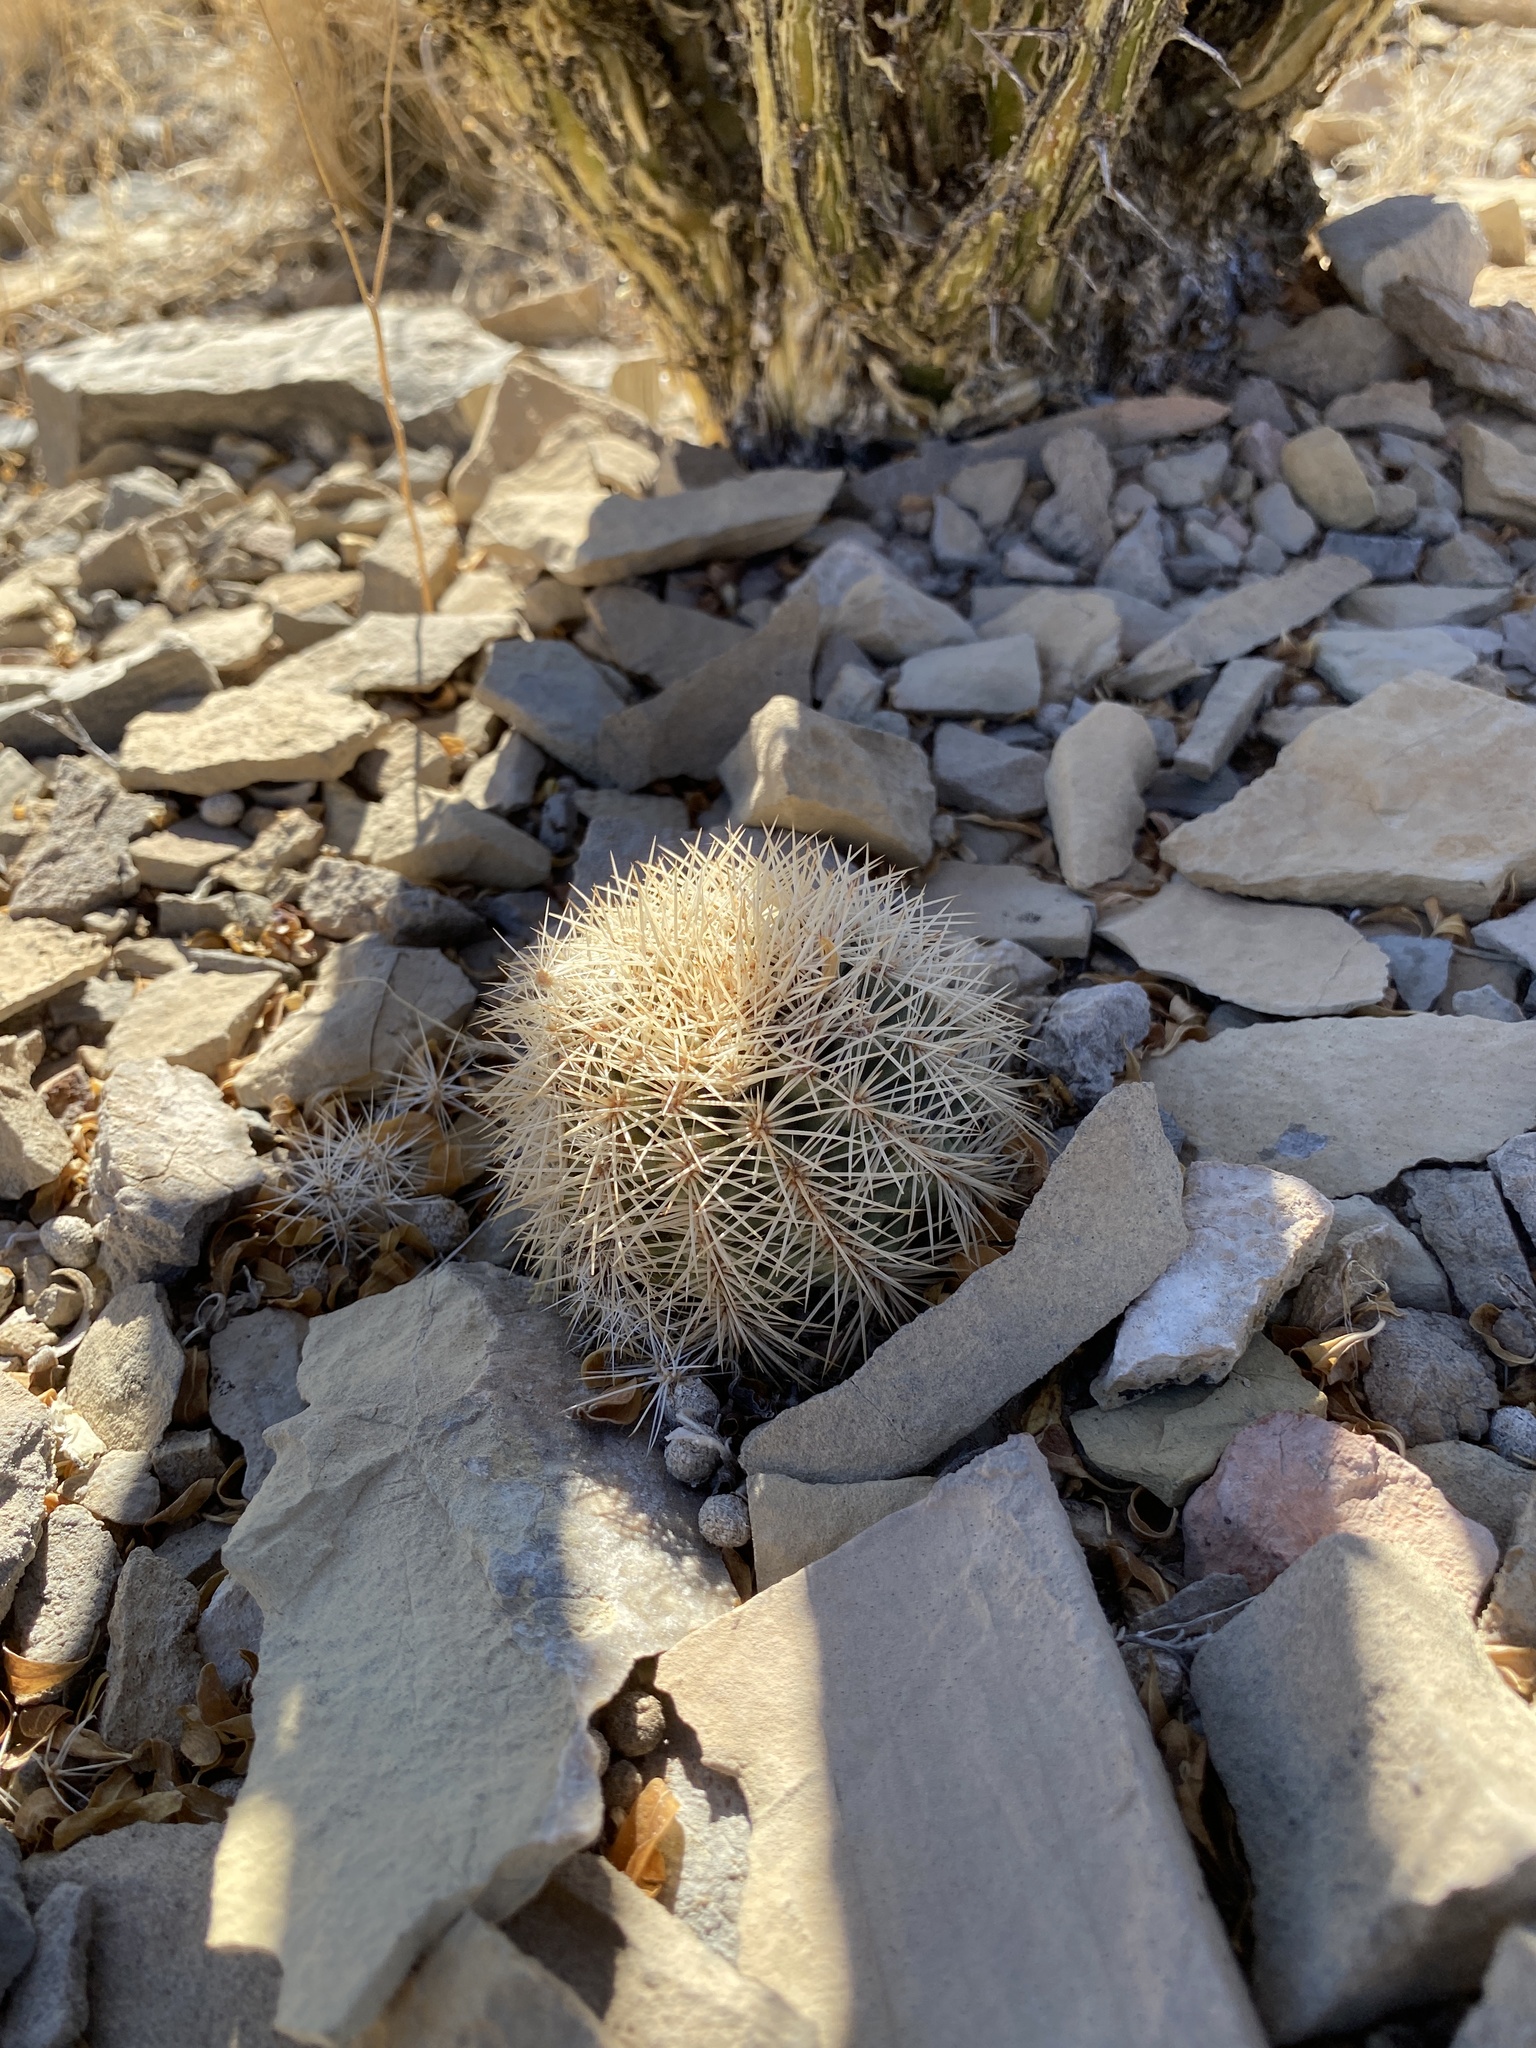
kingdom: Plantae
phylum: Tracheophyta
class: Magnoliopsida
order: Caryophyllales
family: Cactaceae
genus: Echinocereus
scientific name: Echinocereus dasyacanthus
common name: Spiny hedgehog cactus
